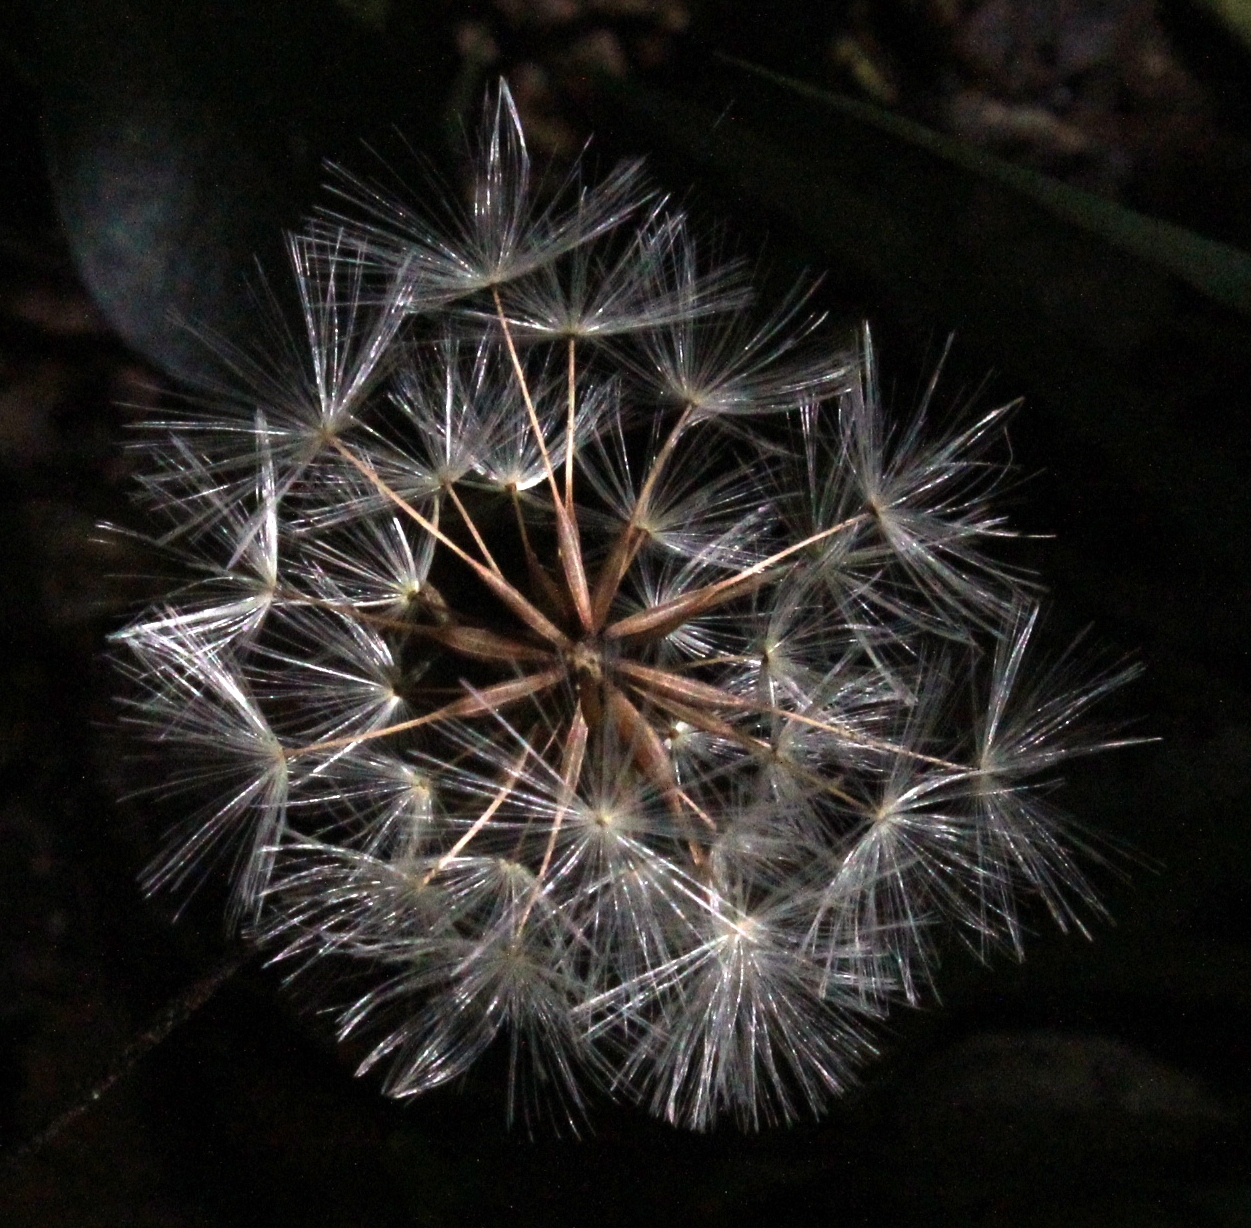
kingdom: Plantae
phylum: Tracheophyta
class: Magnoliopsida
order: Asterales
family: Asteraceae
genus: Piloselloides
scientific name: Piloselloides cordata
